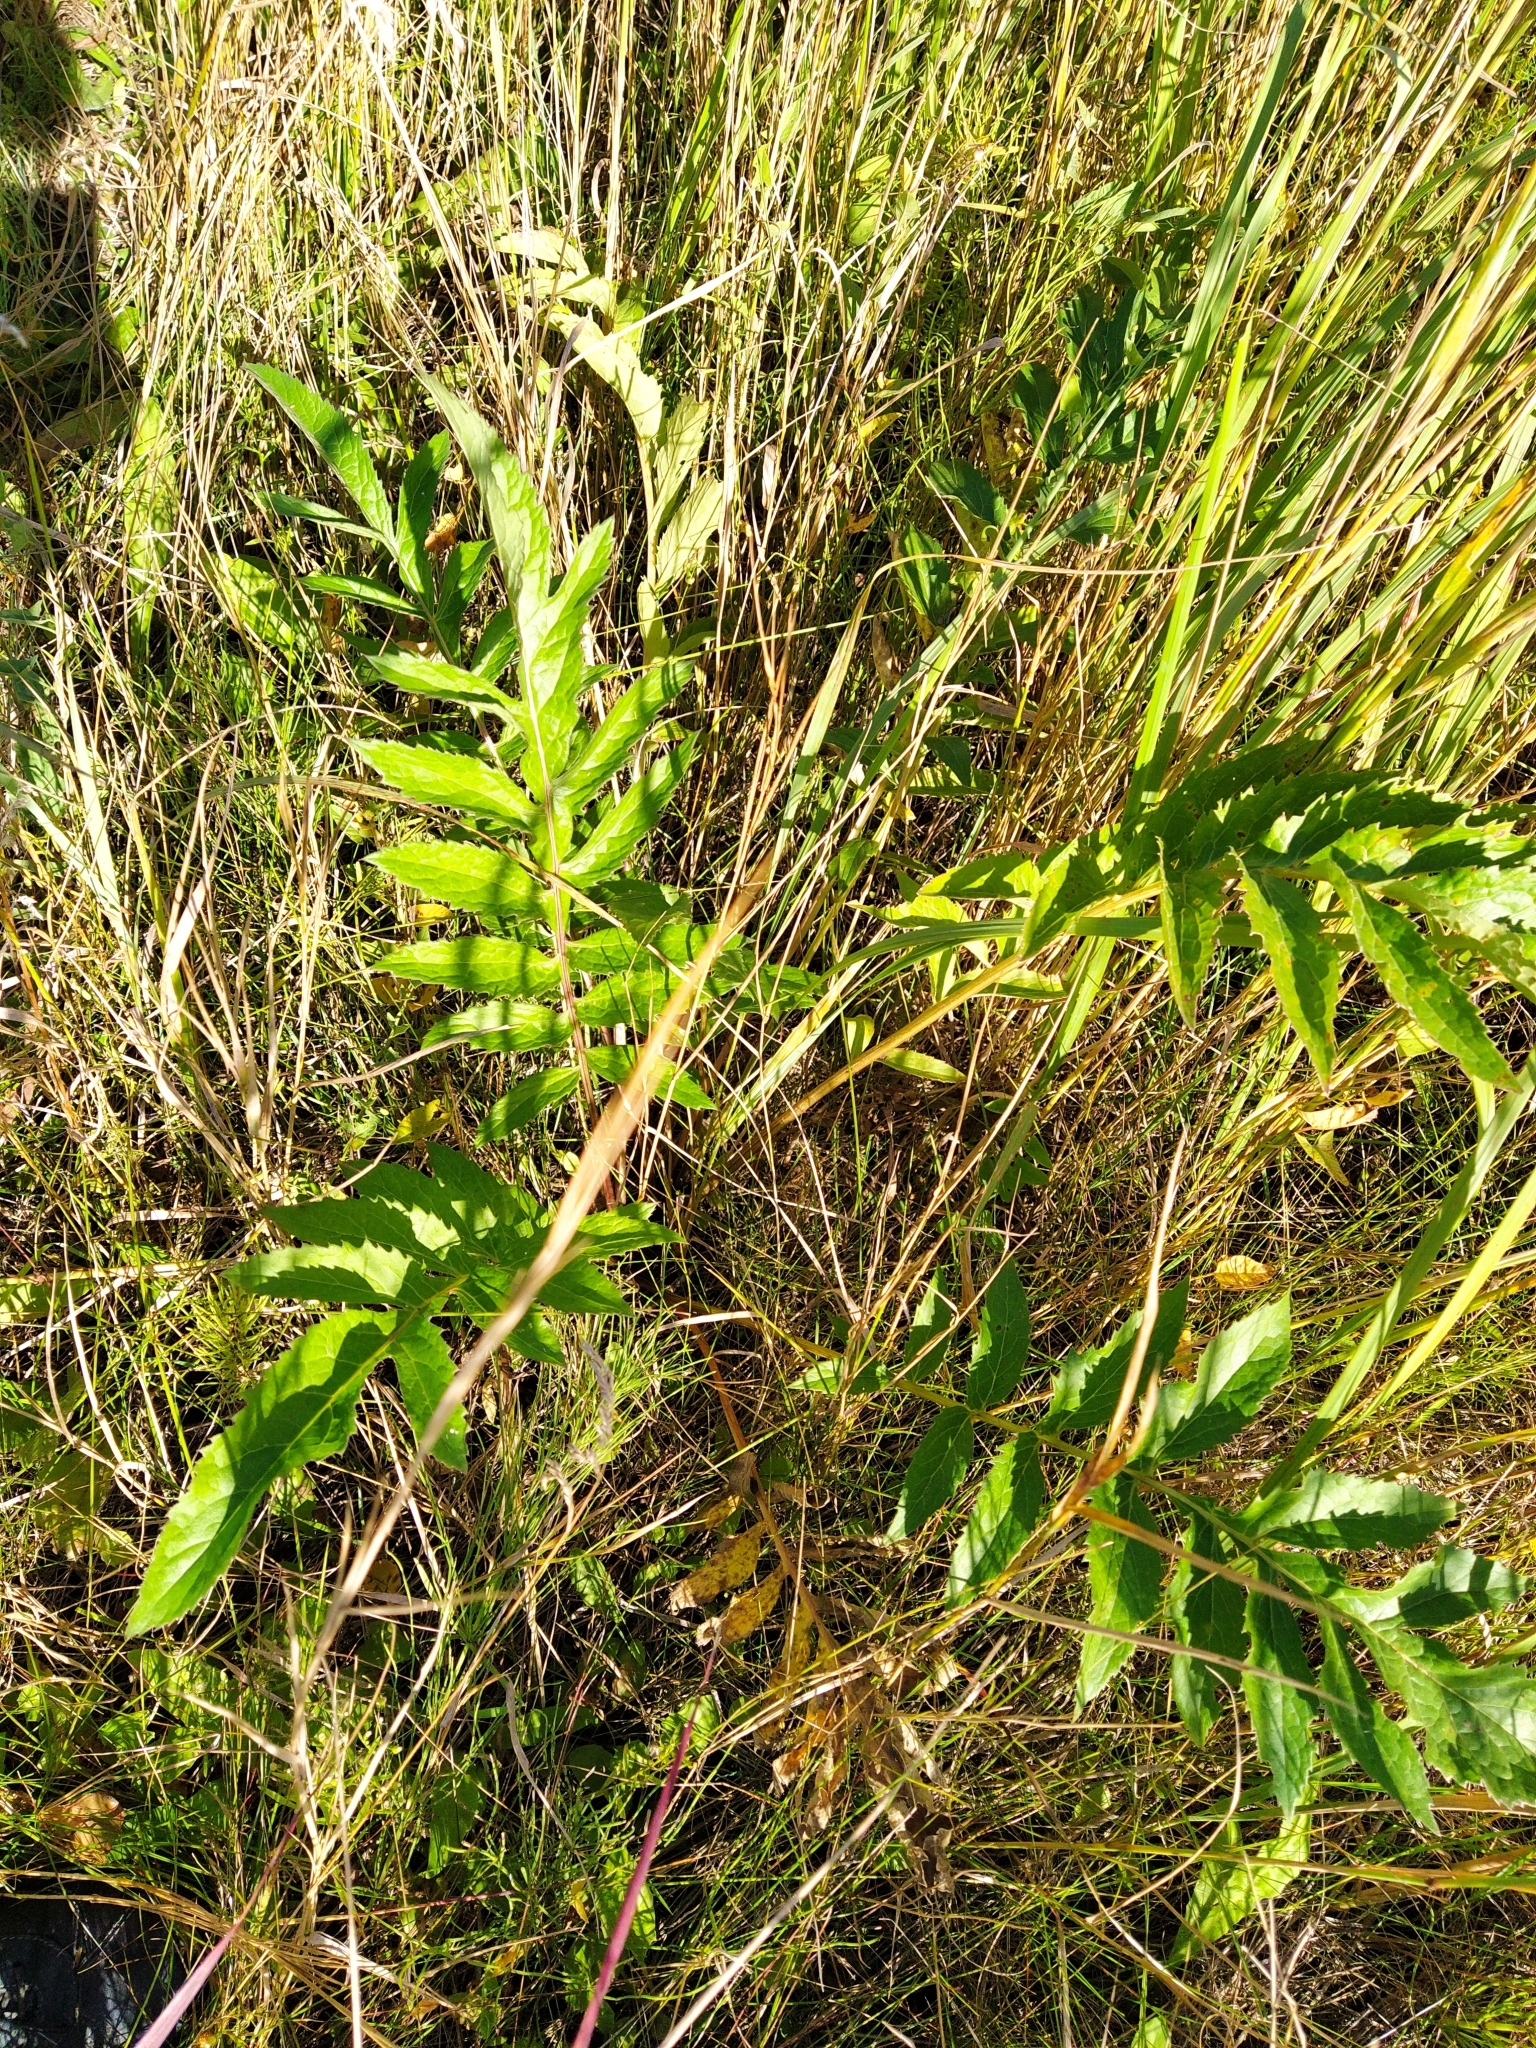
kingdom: Plantae
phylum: Tracheophyta
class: Magnoliopsida
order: Asterales
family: Asteraceae
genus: Serratula
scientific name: Serratula coronata
